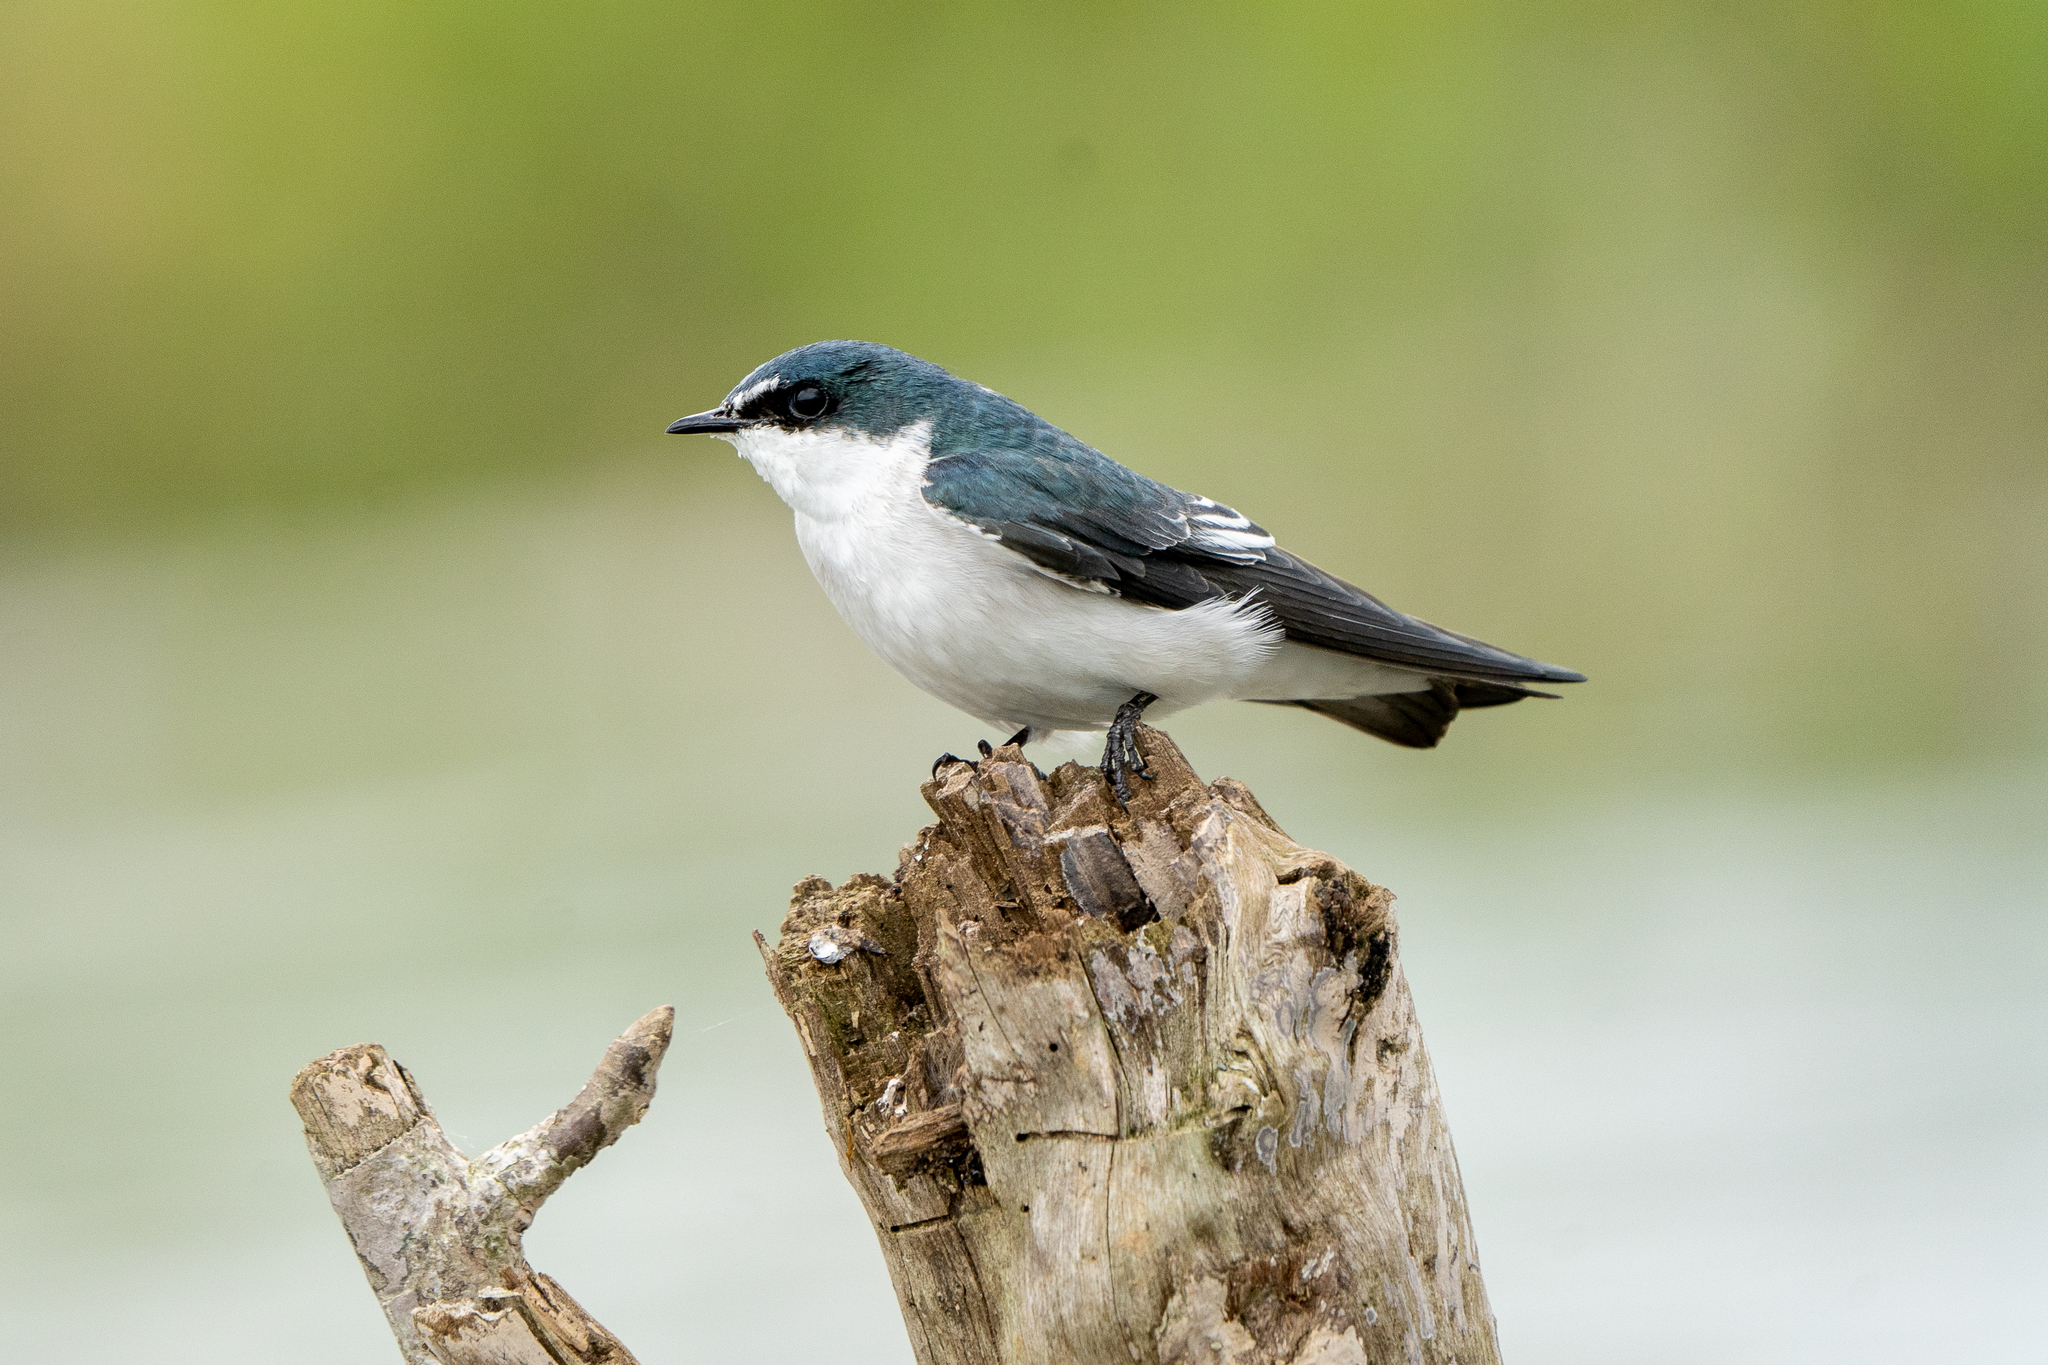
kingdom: Animalia
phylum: Chordata
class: Aves
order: Passeriformes
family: Hirundinidae
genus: Tachycineta
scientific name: Tachycineta albilinea
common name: Mangrove swallow
